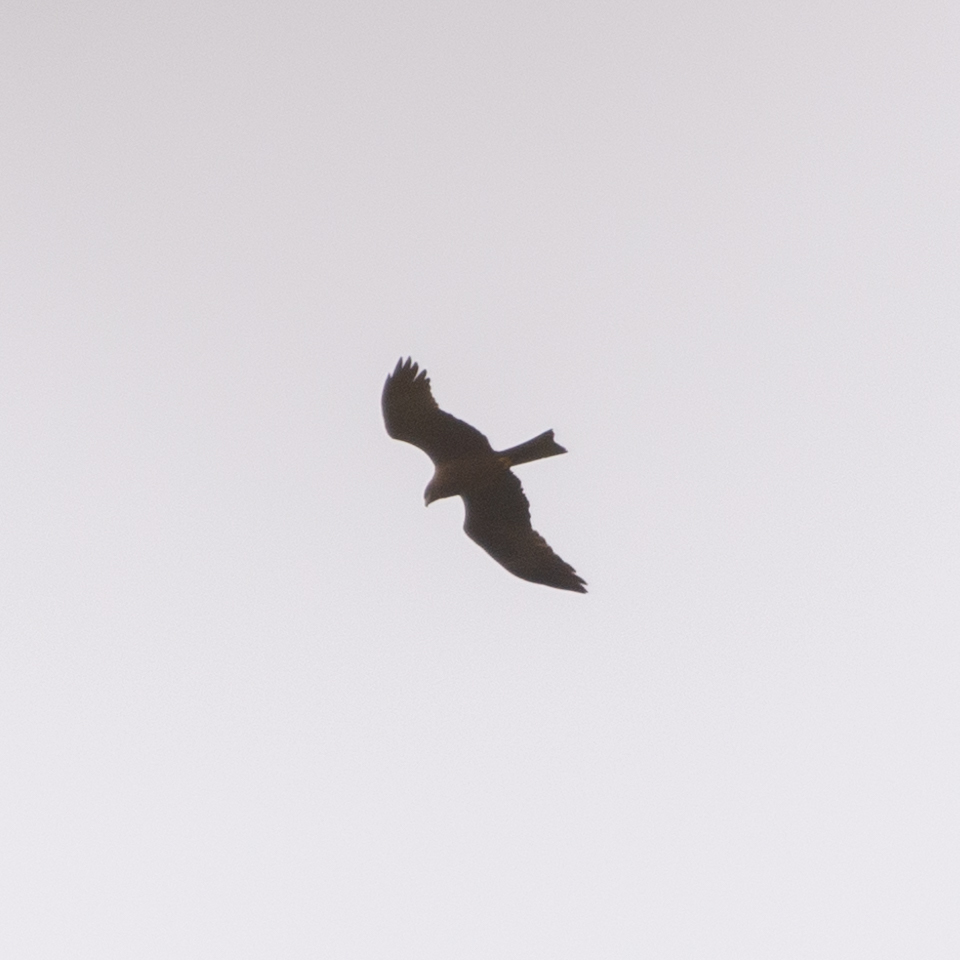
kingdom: Animalia
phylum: Chordata
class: Aves
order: Accipitriformes
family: Accipitridae
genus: Milvus
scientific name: Milvus migrans
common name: Black kite
